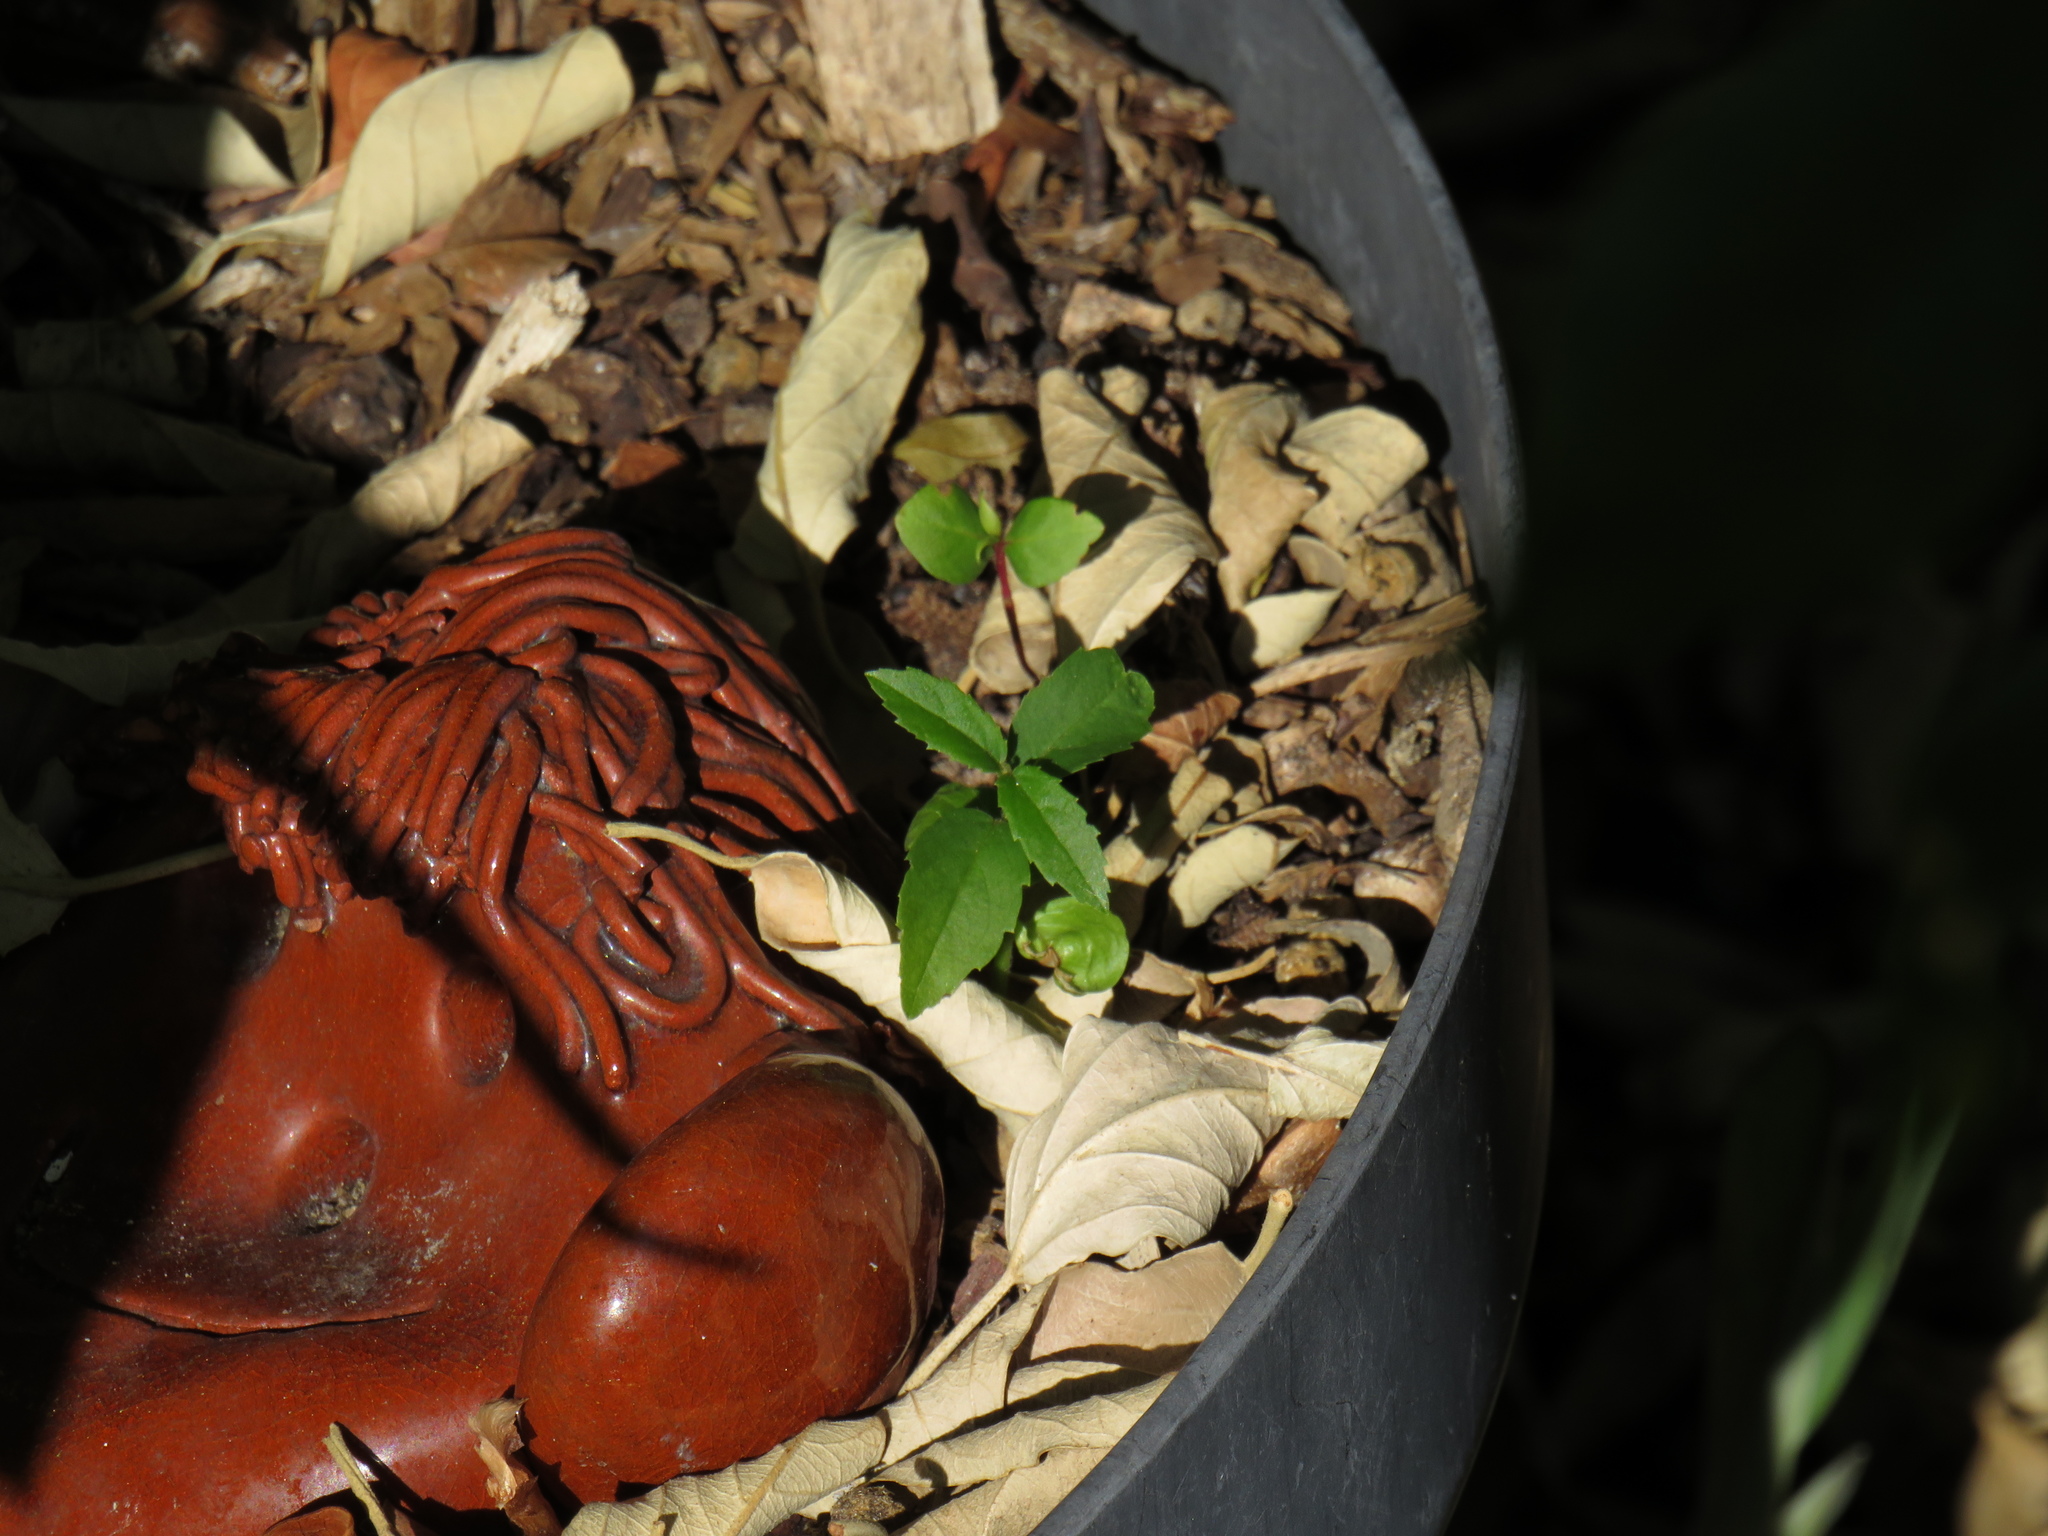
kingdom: Plantae
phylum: Tracheophyta
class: Magnoliopsida
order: Malpighiales
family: Achariaceae
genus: Kiggelaria
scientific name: Kiggelaria africana
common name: Wild peach
